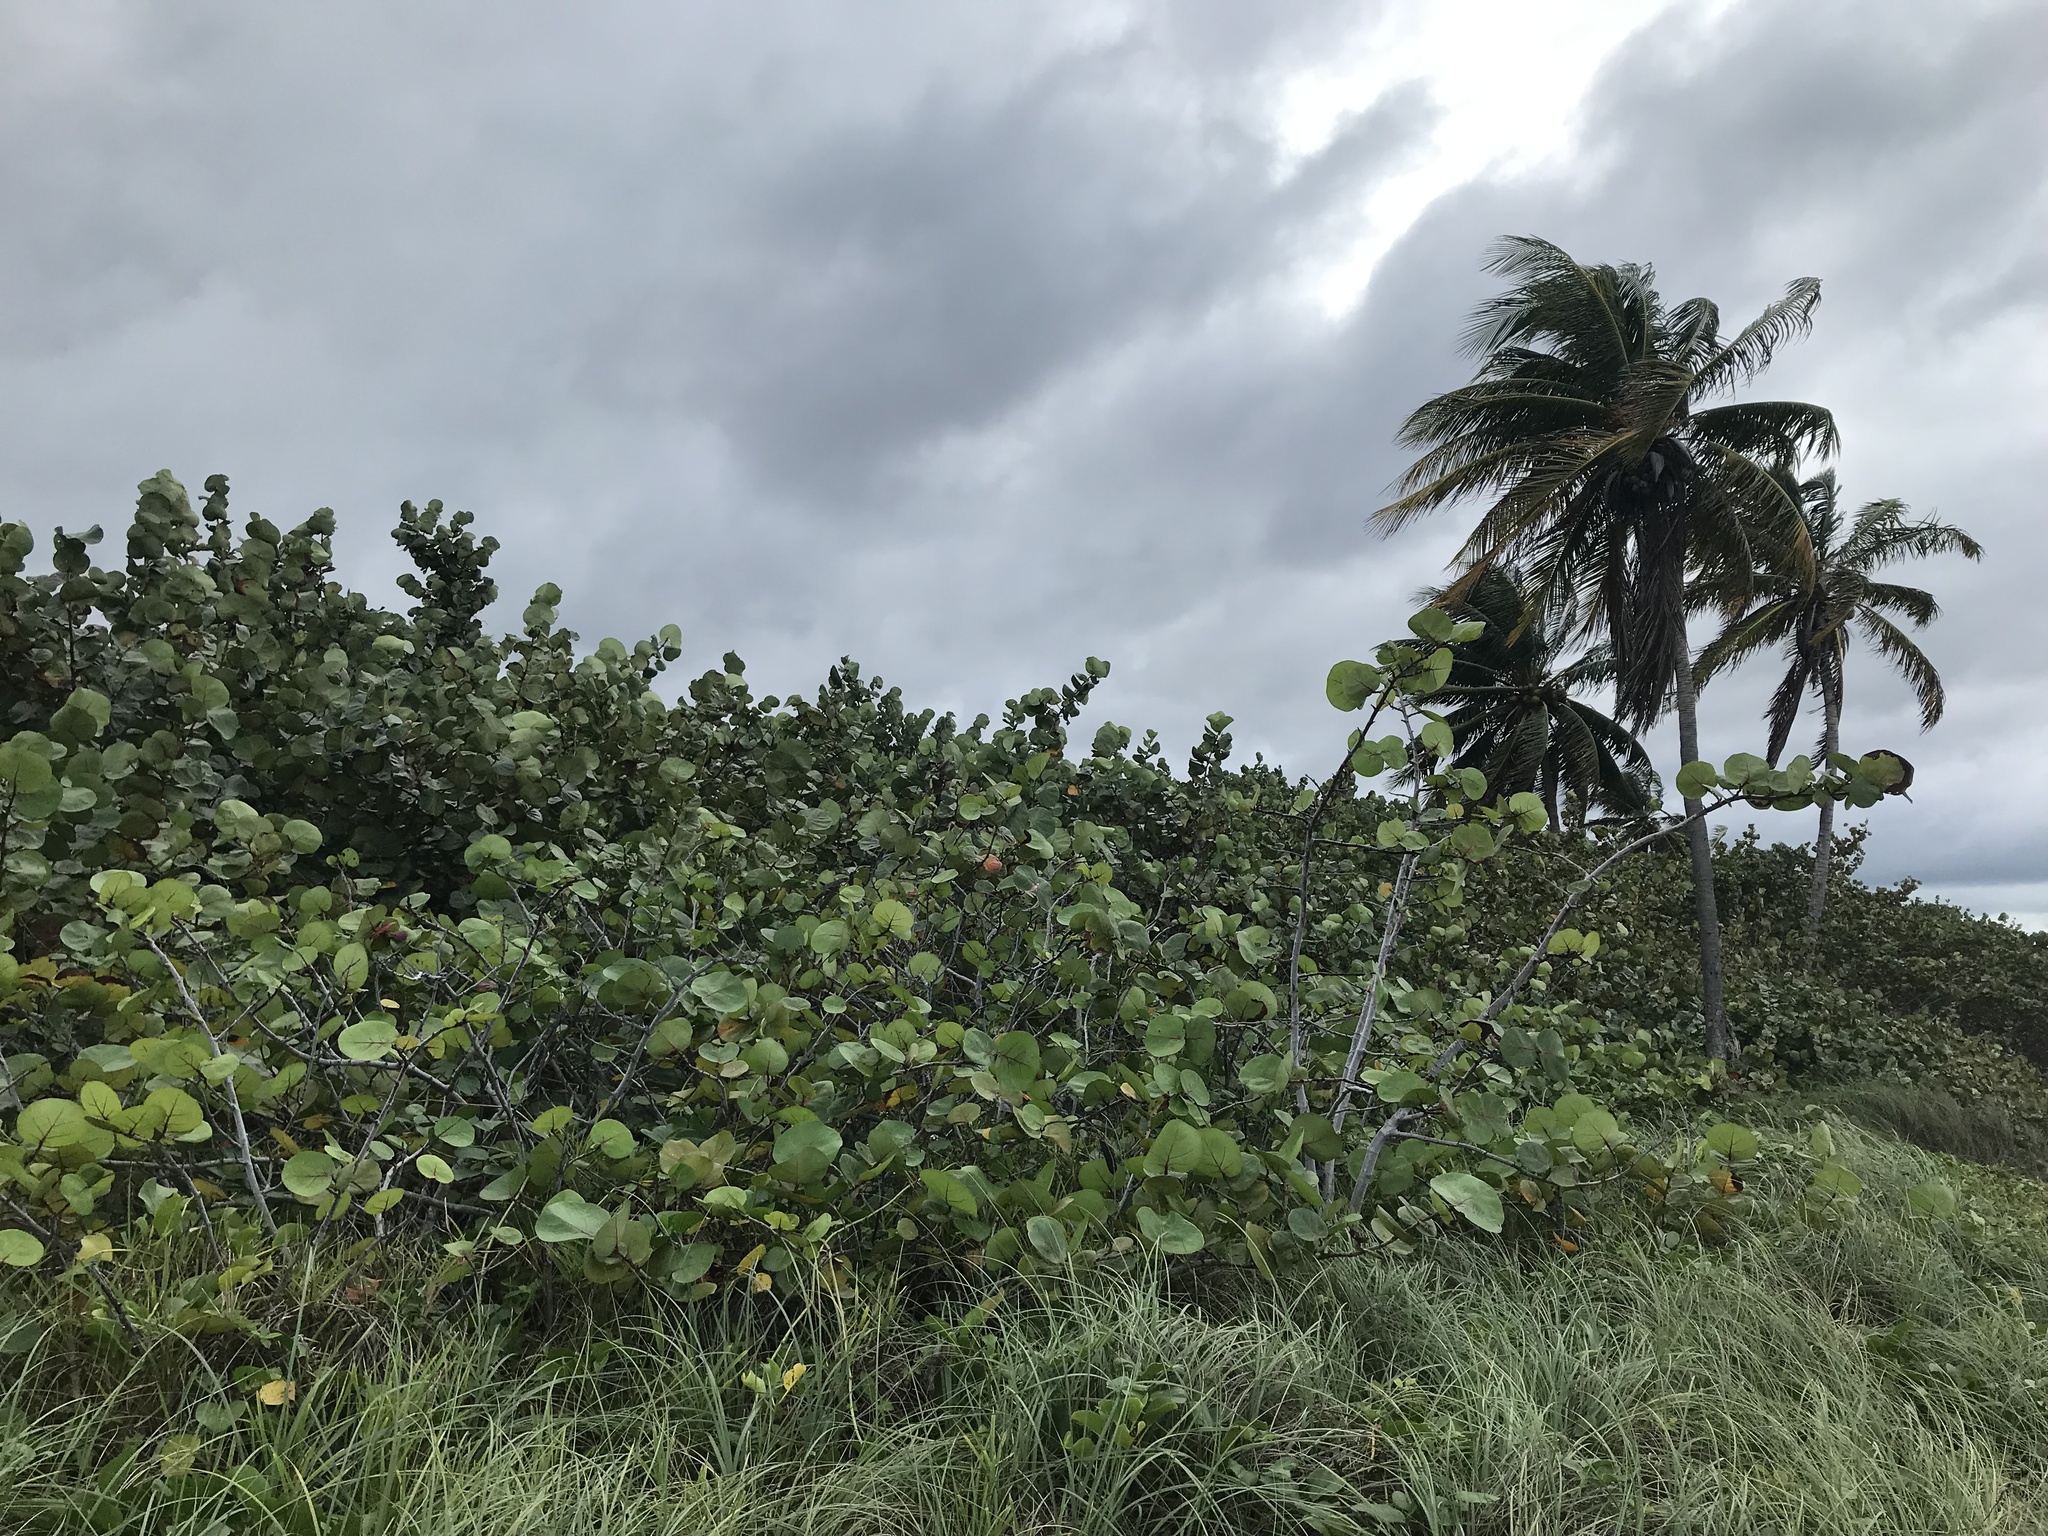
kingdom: Plantae
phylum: Tracheophyta
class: Magnoliopsida
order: Caryophyllales
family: Polygonaceae
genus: Coccoloba
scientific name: Coccoloba uvifera
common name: Seagrape
